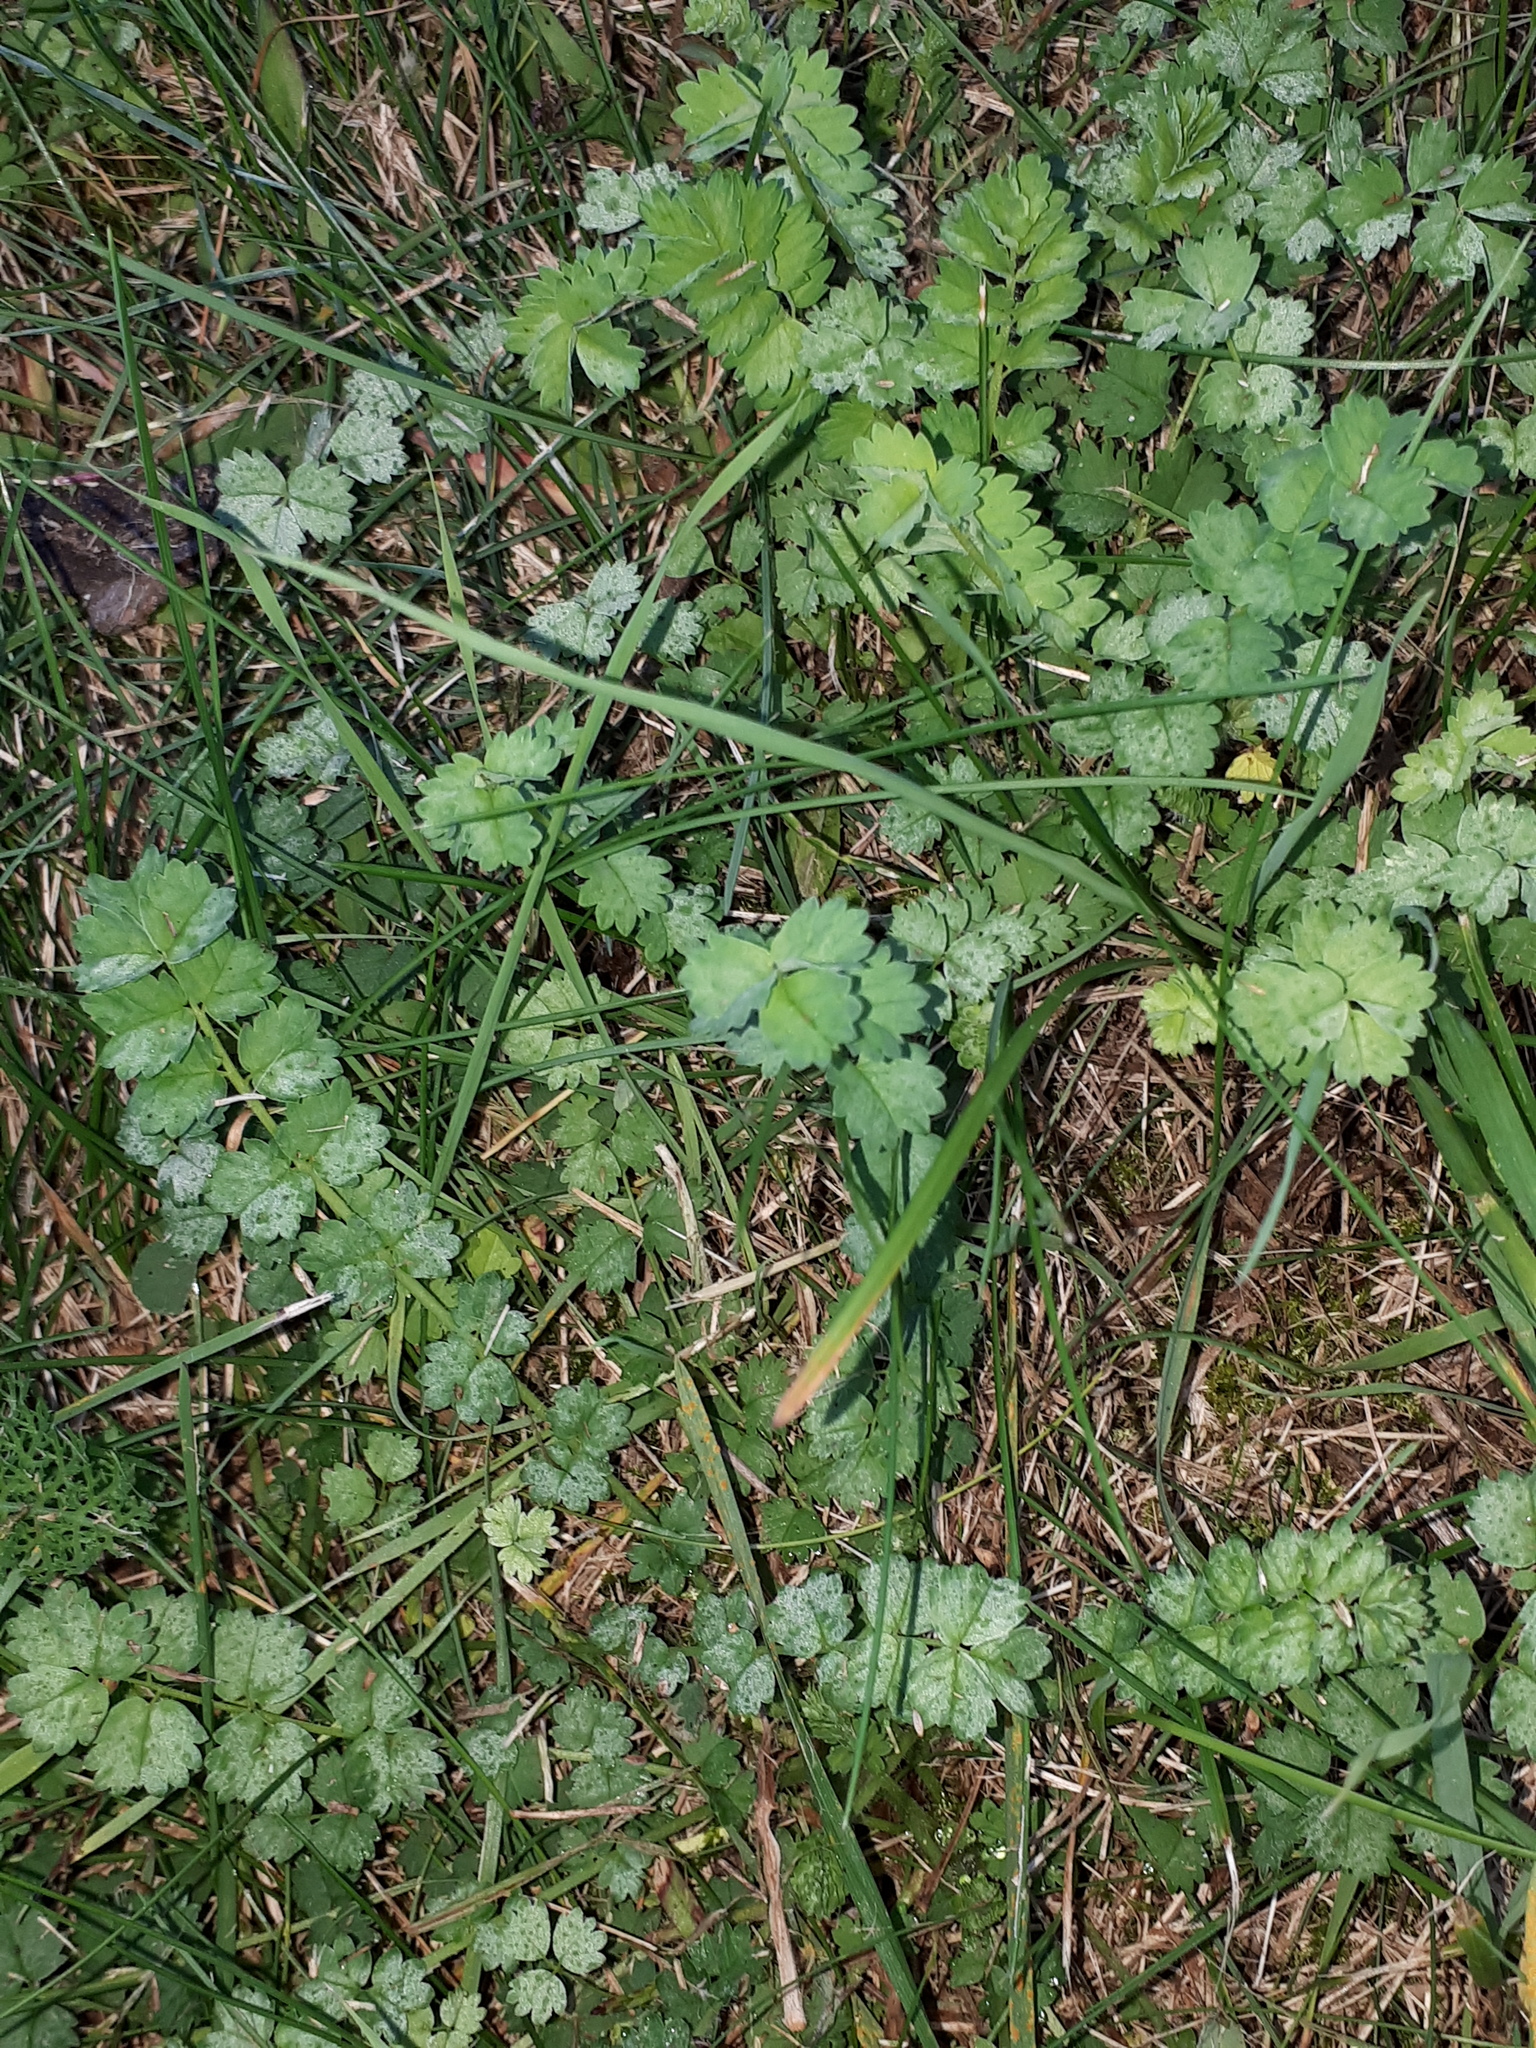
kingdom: Plantae
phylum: Tracheophyta
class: Magnoliopsida
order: Rosales
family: Rosaceae
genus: Poterium
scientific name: Poterium sanguisorba
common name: Salad burnet
